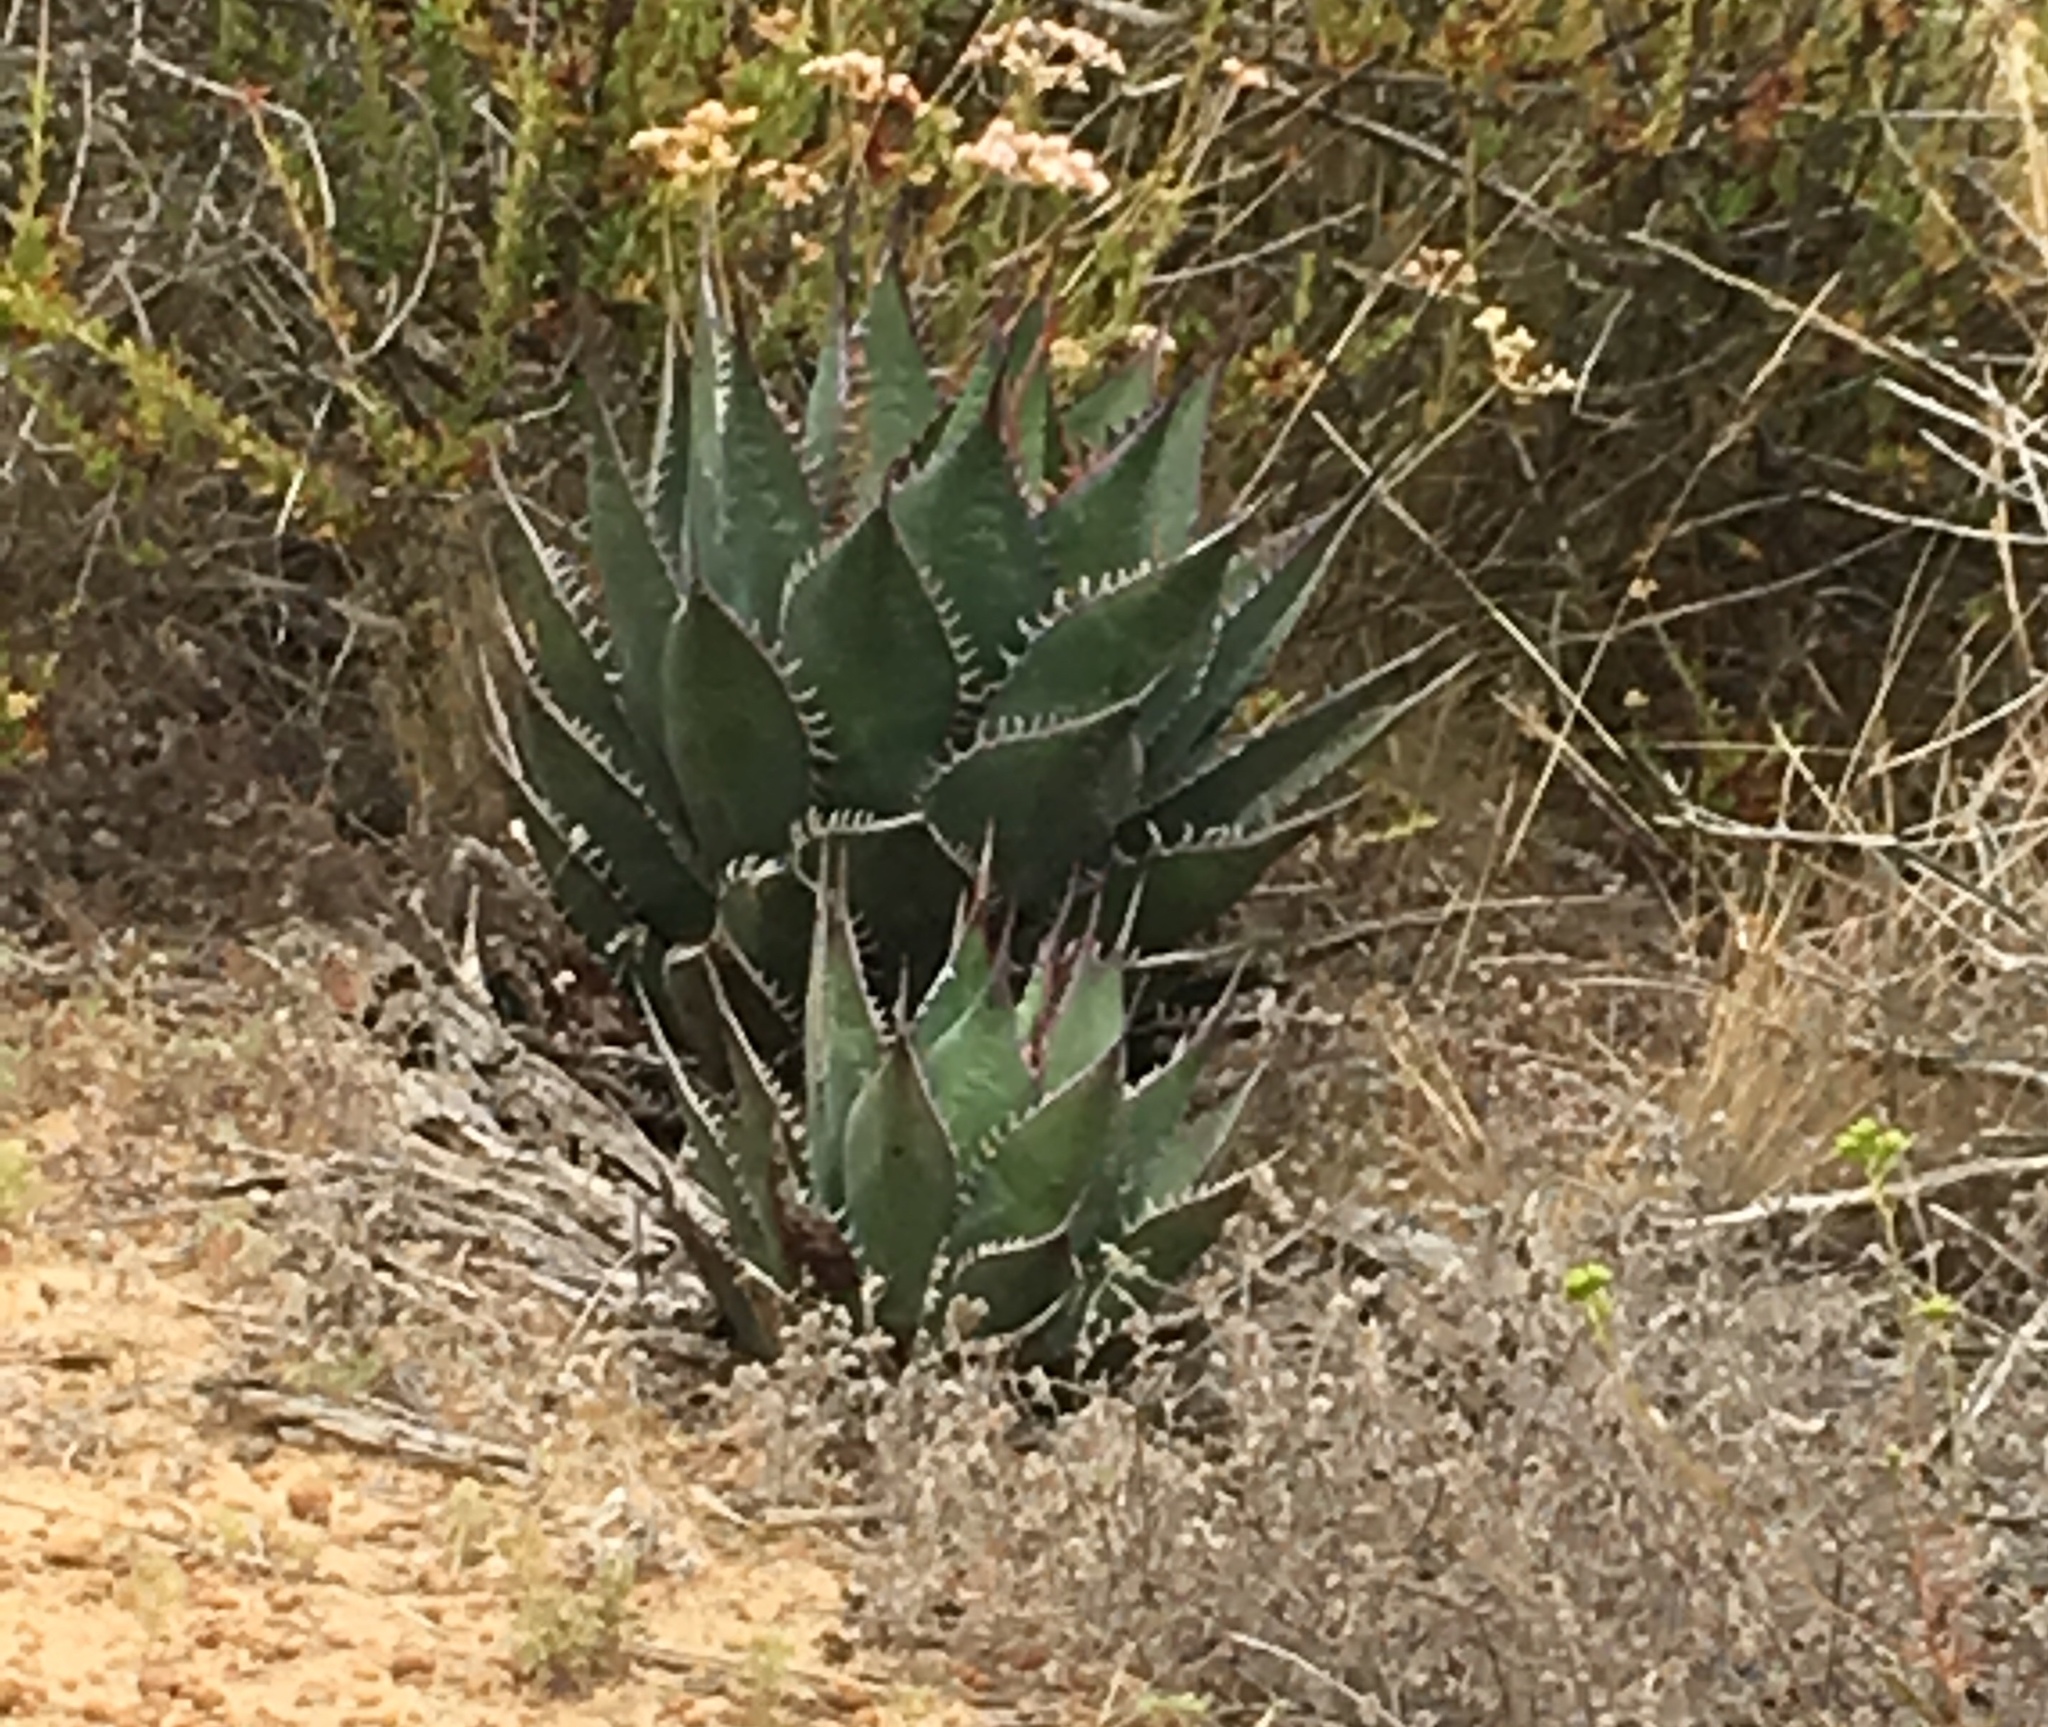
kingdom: Plantae
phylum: Tracheophyta
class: Liliopsida
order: Asparagales
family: Asparagaceae
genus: Agave
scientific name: Agave shawii
